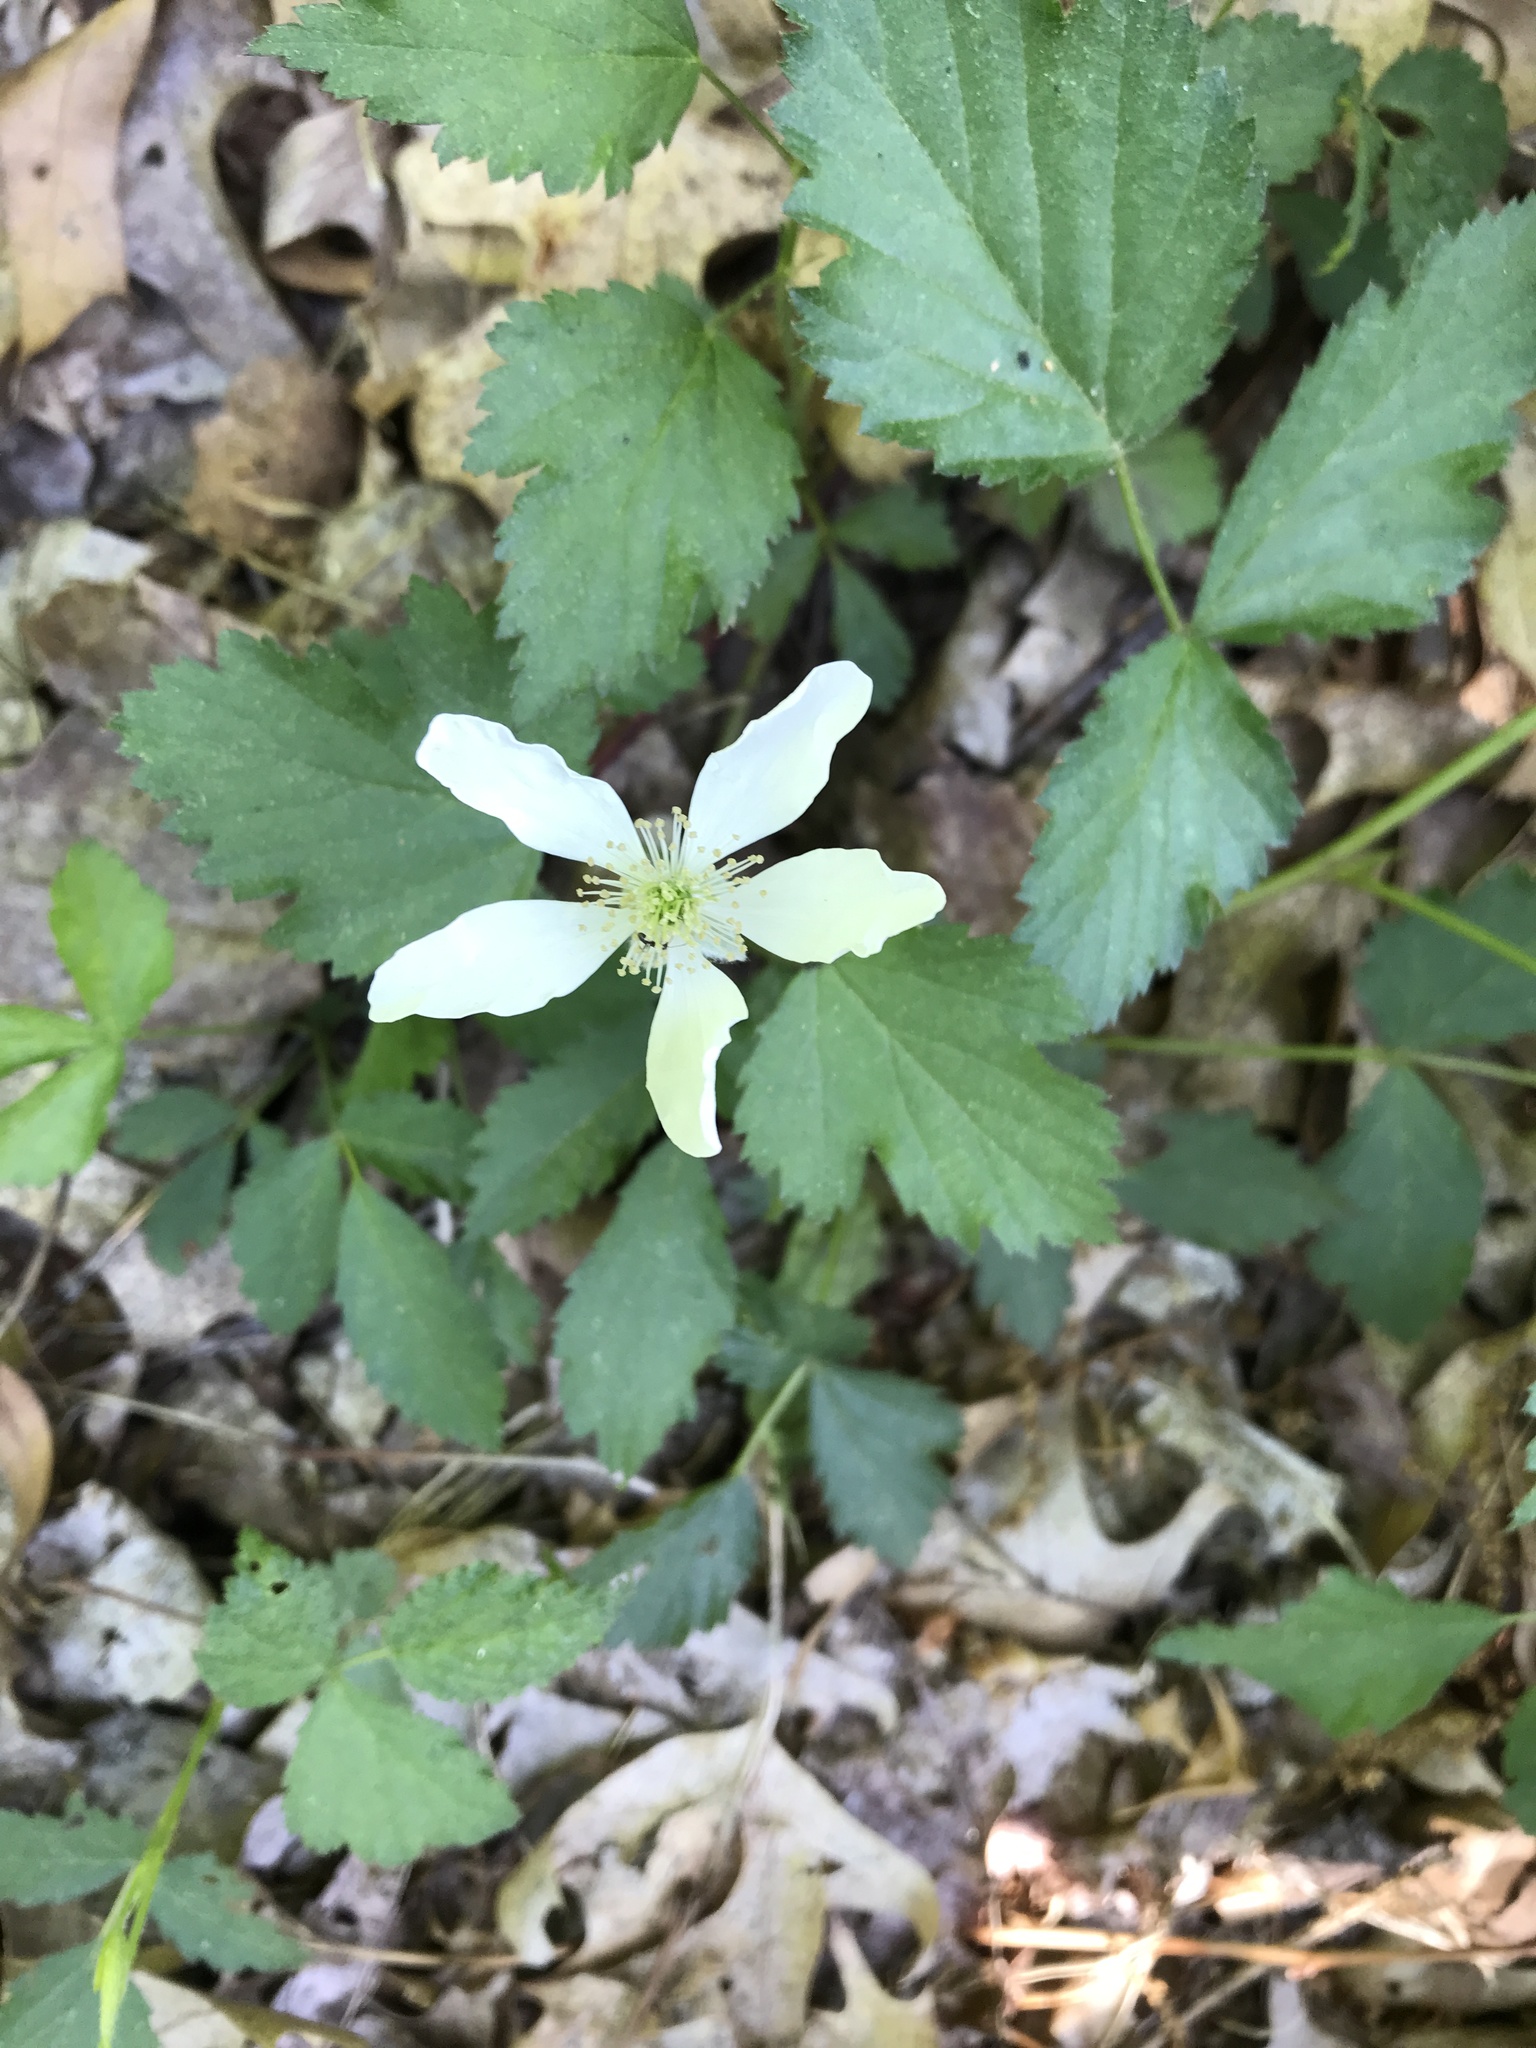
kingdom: Plantae
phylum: Tracheophyta
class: Magnoliopsida
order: Rosales
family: Rosaceae
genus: Rubus
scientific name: Rubus flagellaris
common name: American dewberry
